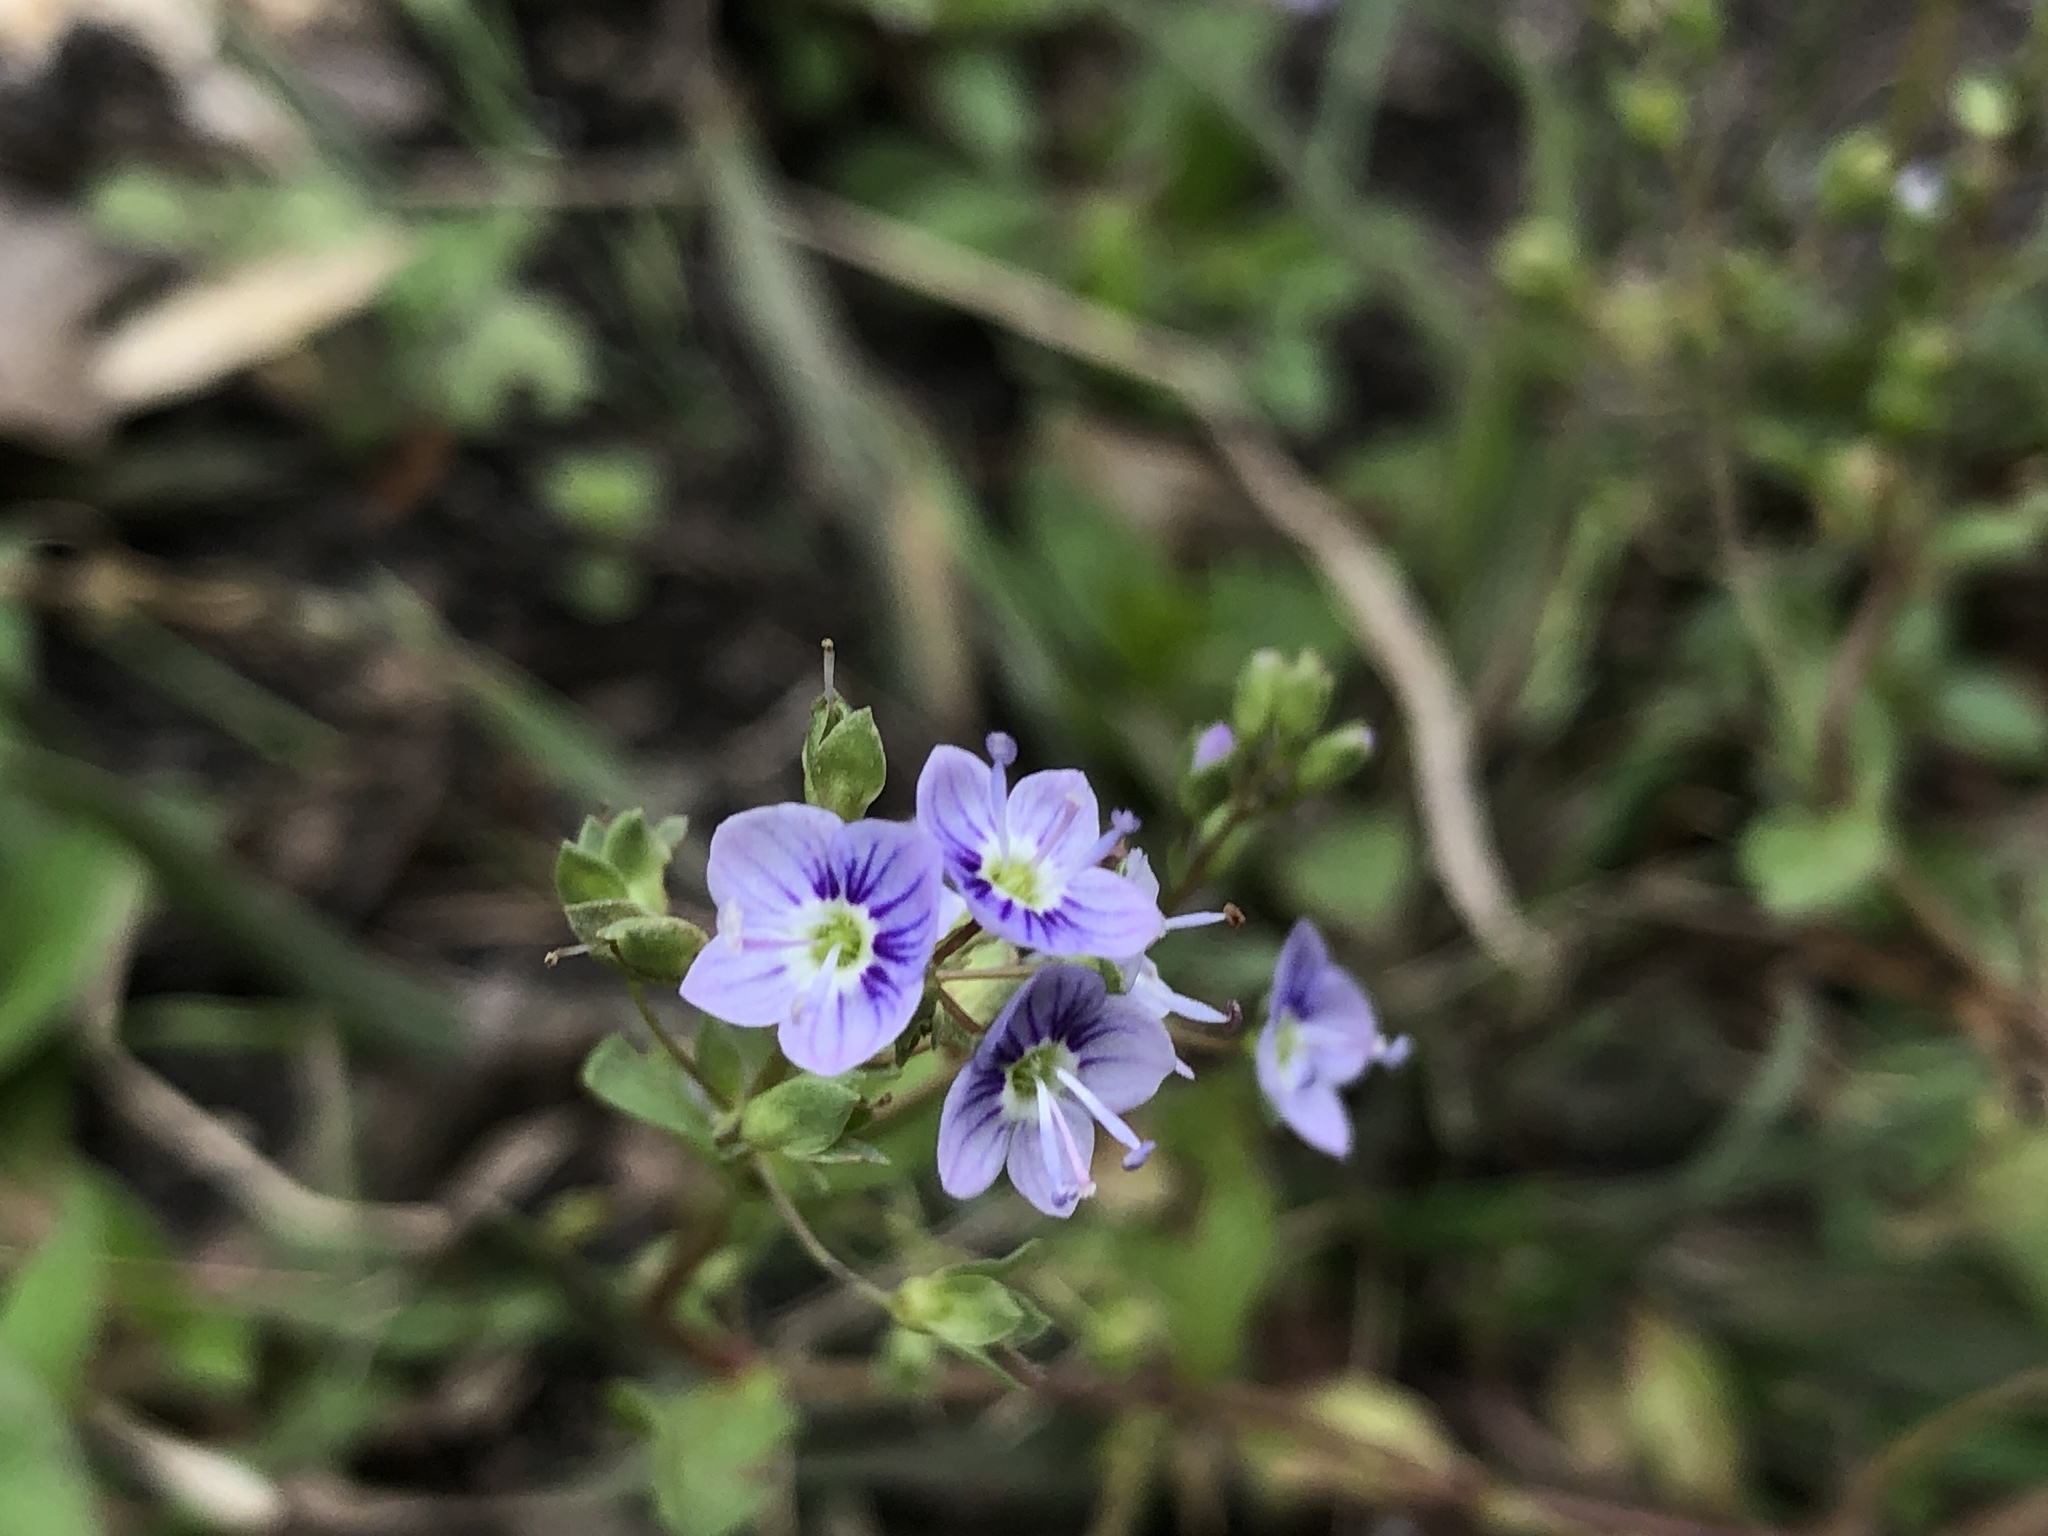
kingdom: Plantae
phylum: Tracheophyta
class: Magnoliopsida
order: Lamiales
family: Plantaginaceae
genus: Veronica
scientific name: Veronica anagallis-aquatica
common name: Water speedwell
